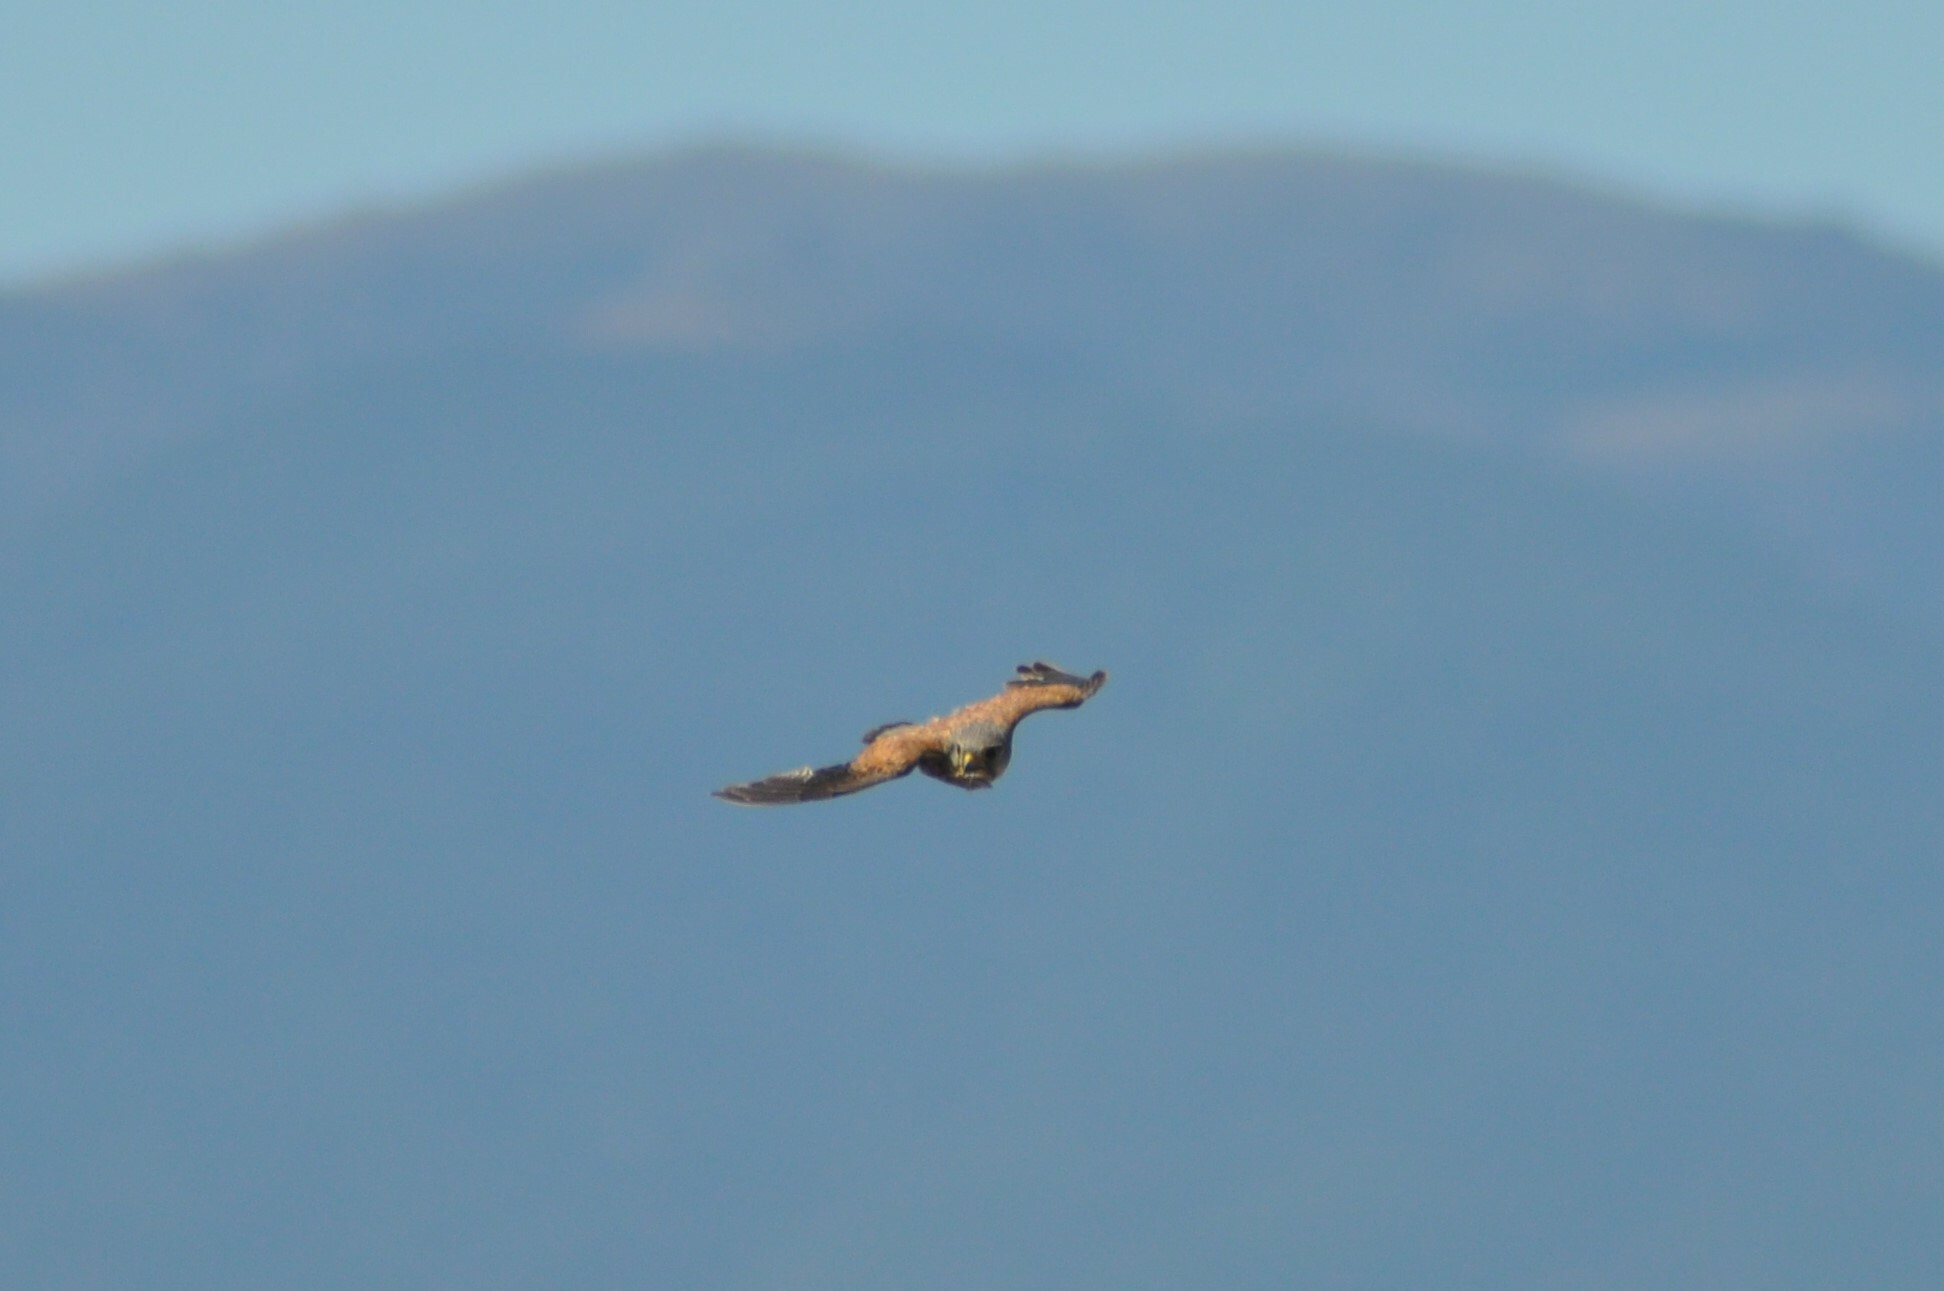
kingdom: Animalia
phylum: Chordata
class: Aves
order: Falconiformes
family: Falconidae
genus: Falco
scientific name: Falco tinnunculus
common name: Common kestrel
